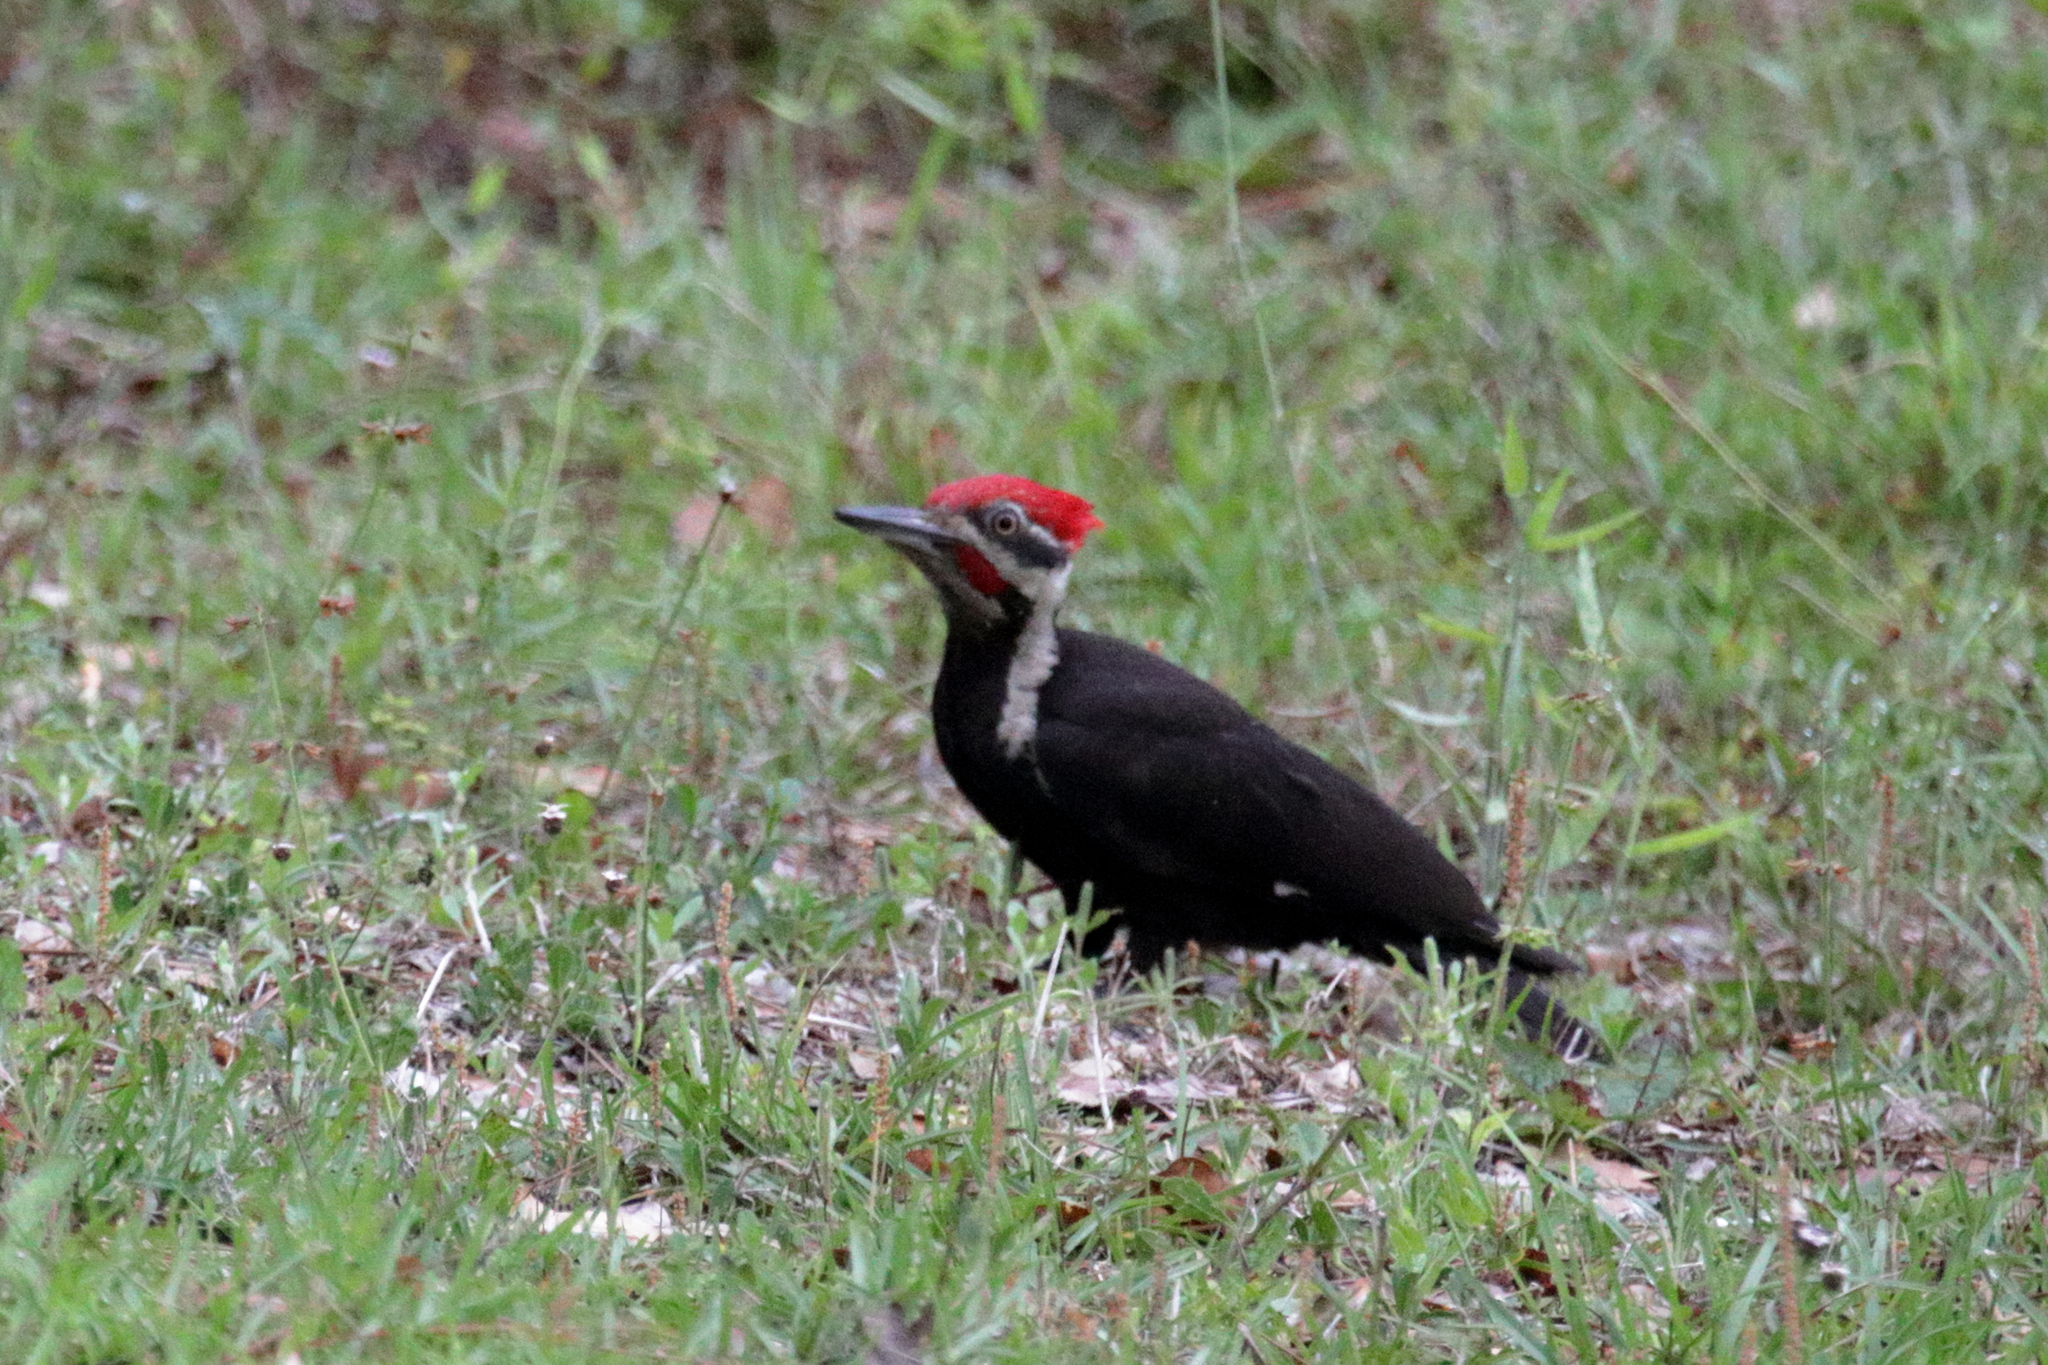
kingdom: Animalia
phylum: Chordata
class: Aves
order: Piciformes
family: Picidae
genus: Dryocopus
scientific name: Dryocopus pileatus
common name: Pileated woodpecker
